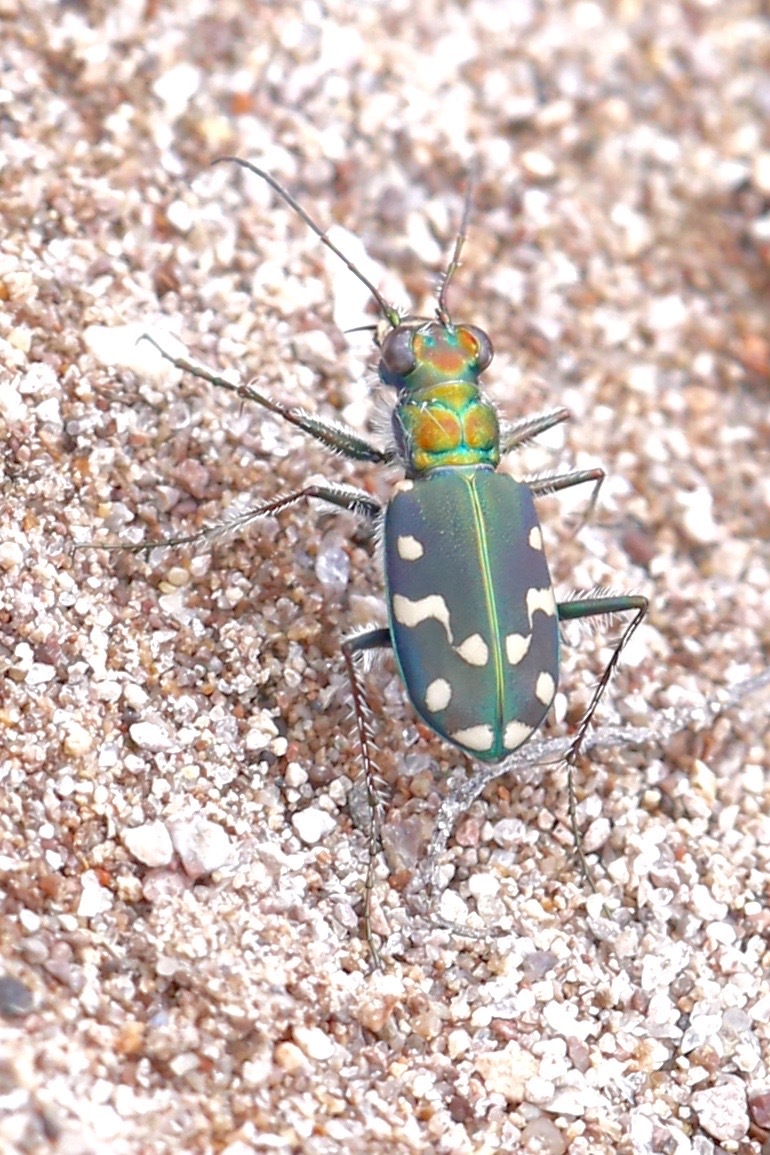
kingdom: Animalia
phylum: Arthropoda
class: Insecta
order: Coleoptera
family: Carabidae
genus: Cicindela
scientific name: Cicindela oregona
